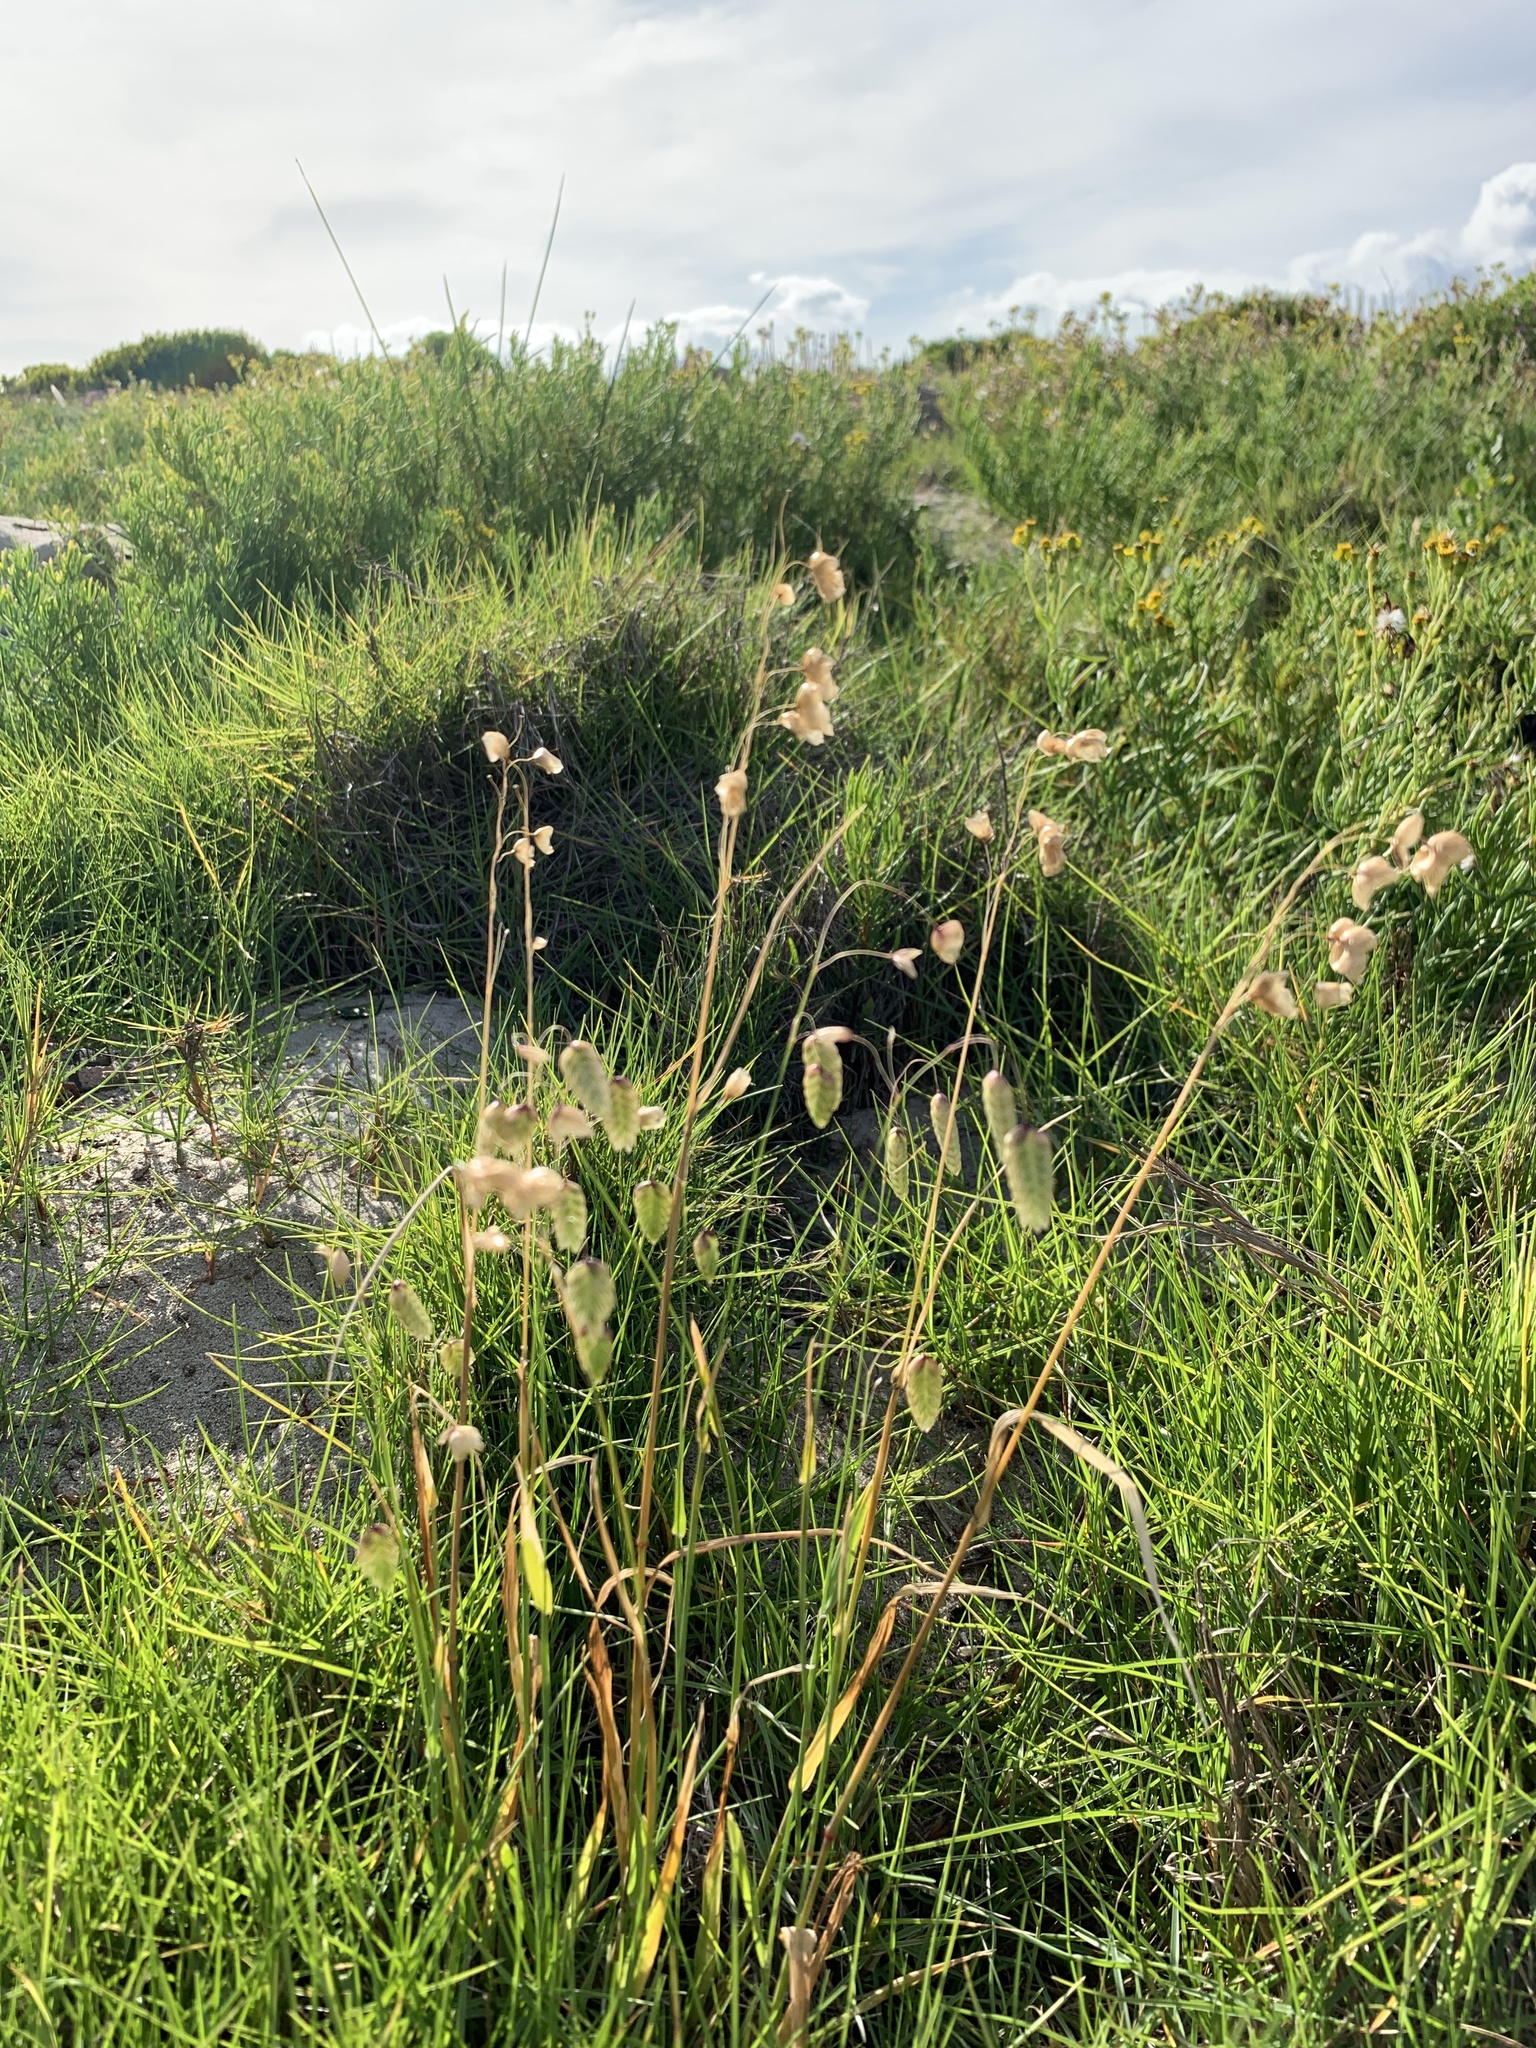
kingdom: Plantae
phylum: Tracheophyta
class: Liliopsida
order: Poales
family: Poaceae
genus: Briza
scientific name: Briza maxima
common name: Big quakinggrass
